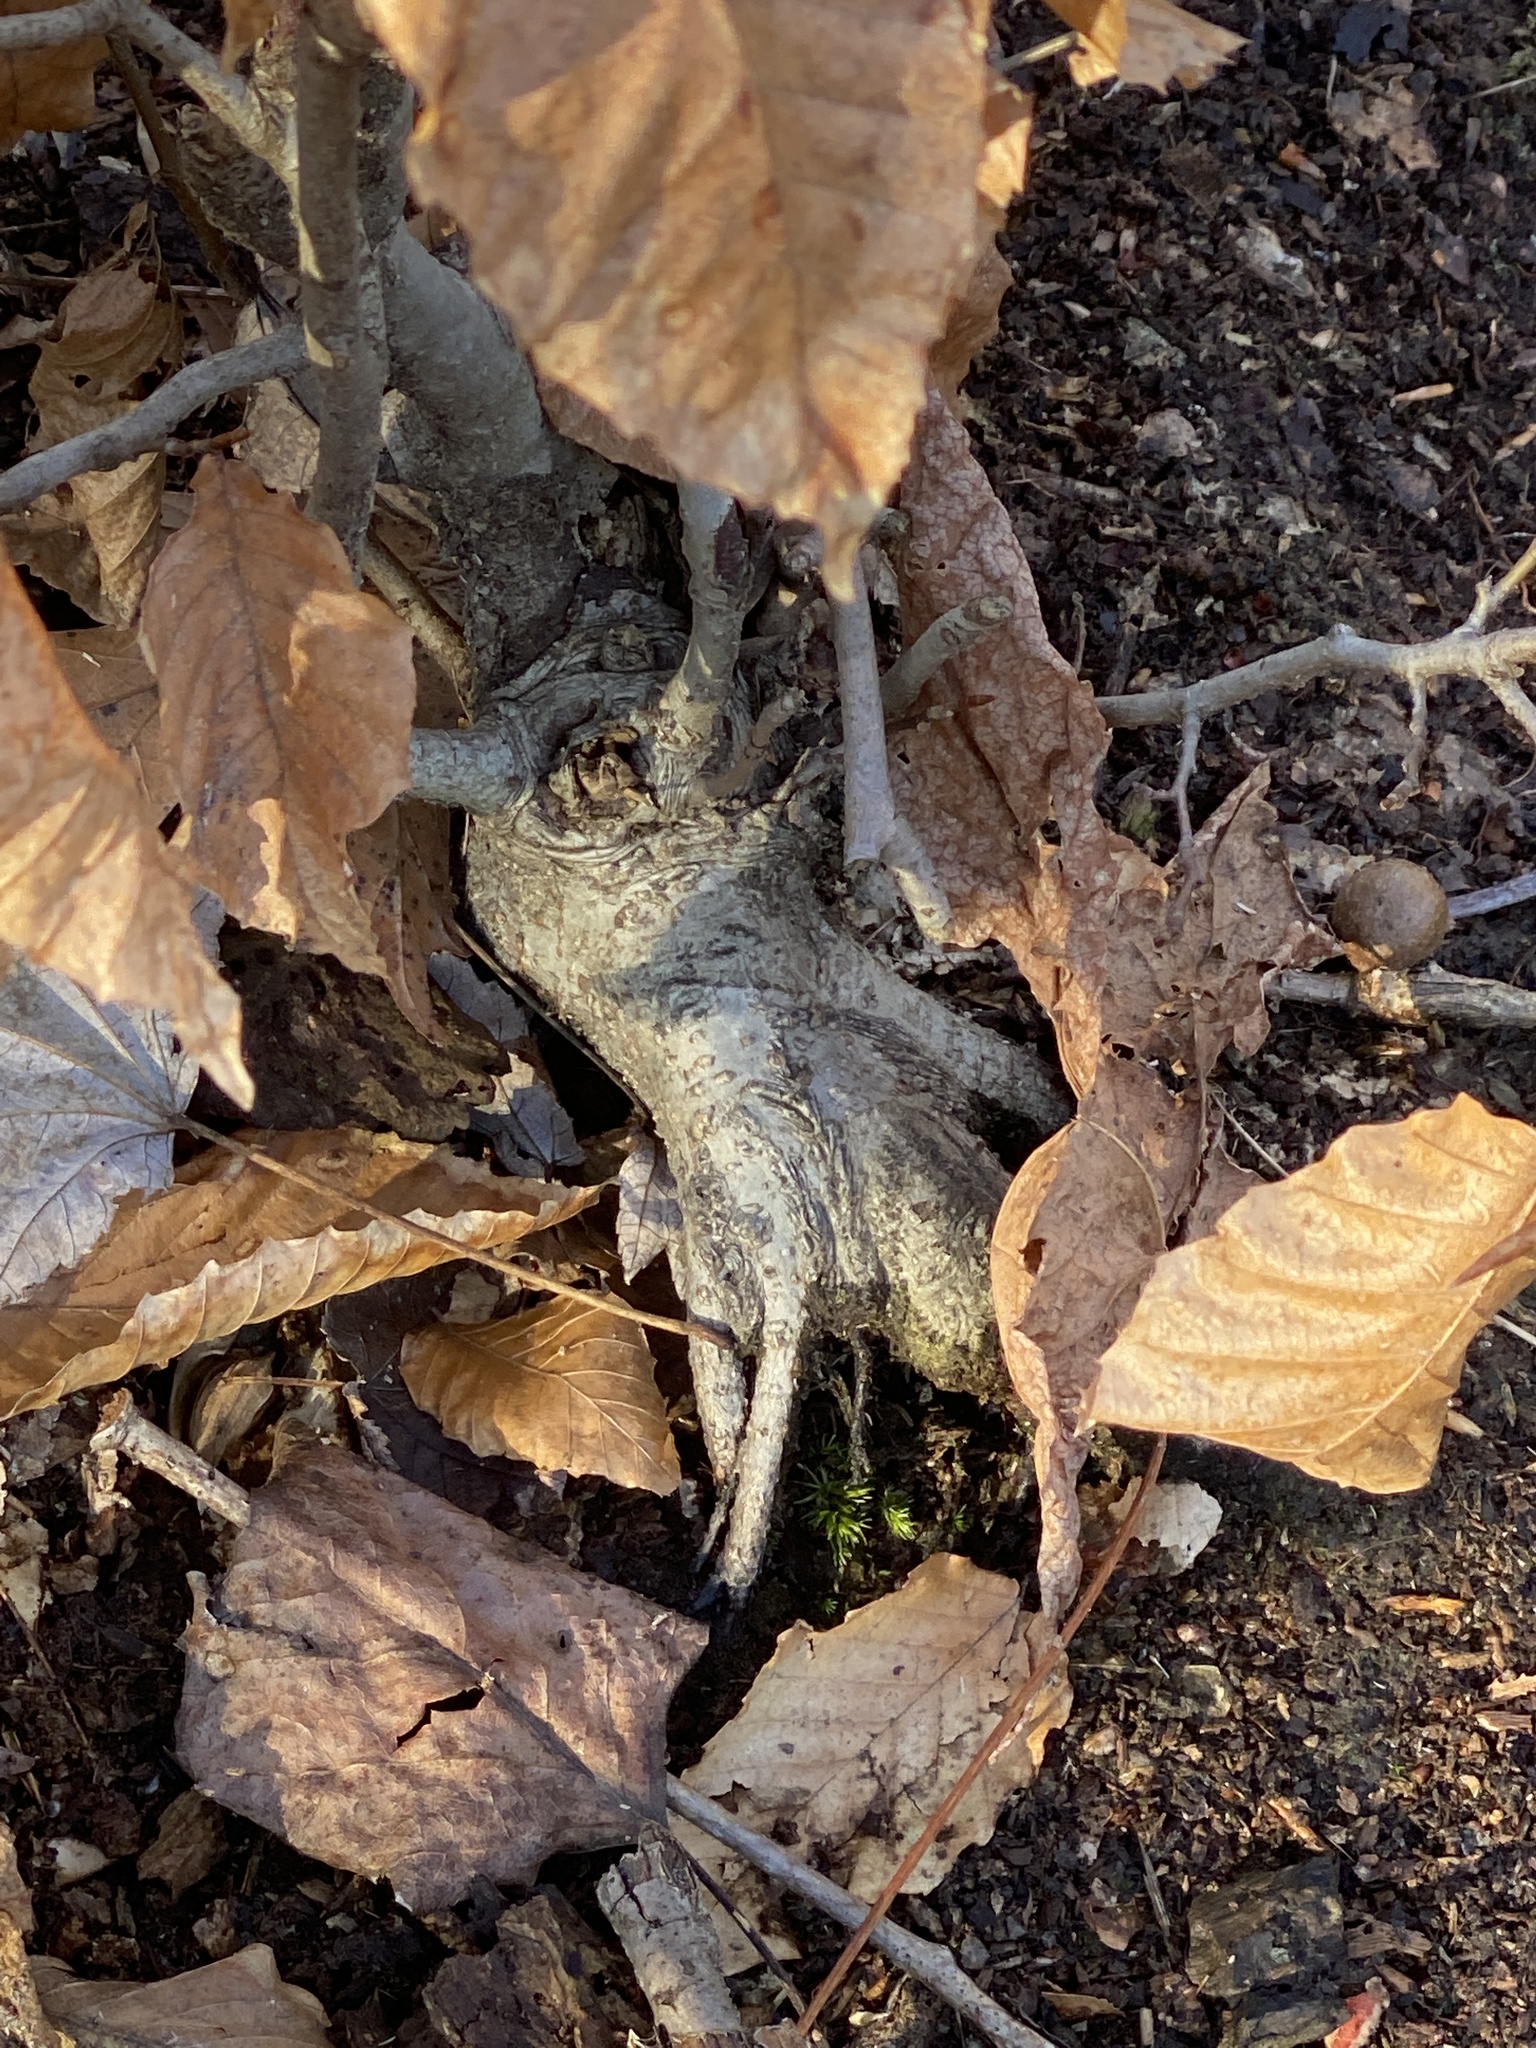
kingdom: Plantae
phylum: Tracheophyta
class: Magnoliopsida
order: Fagales
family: Fagaceae
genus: Fagus
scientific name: Fagus grandifolia
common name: American beech
